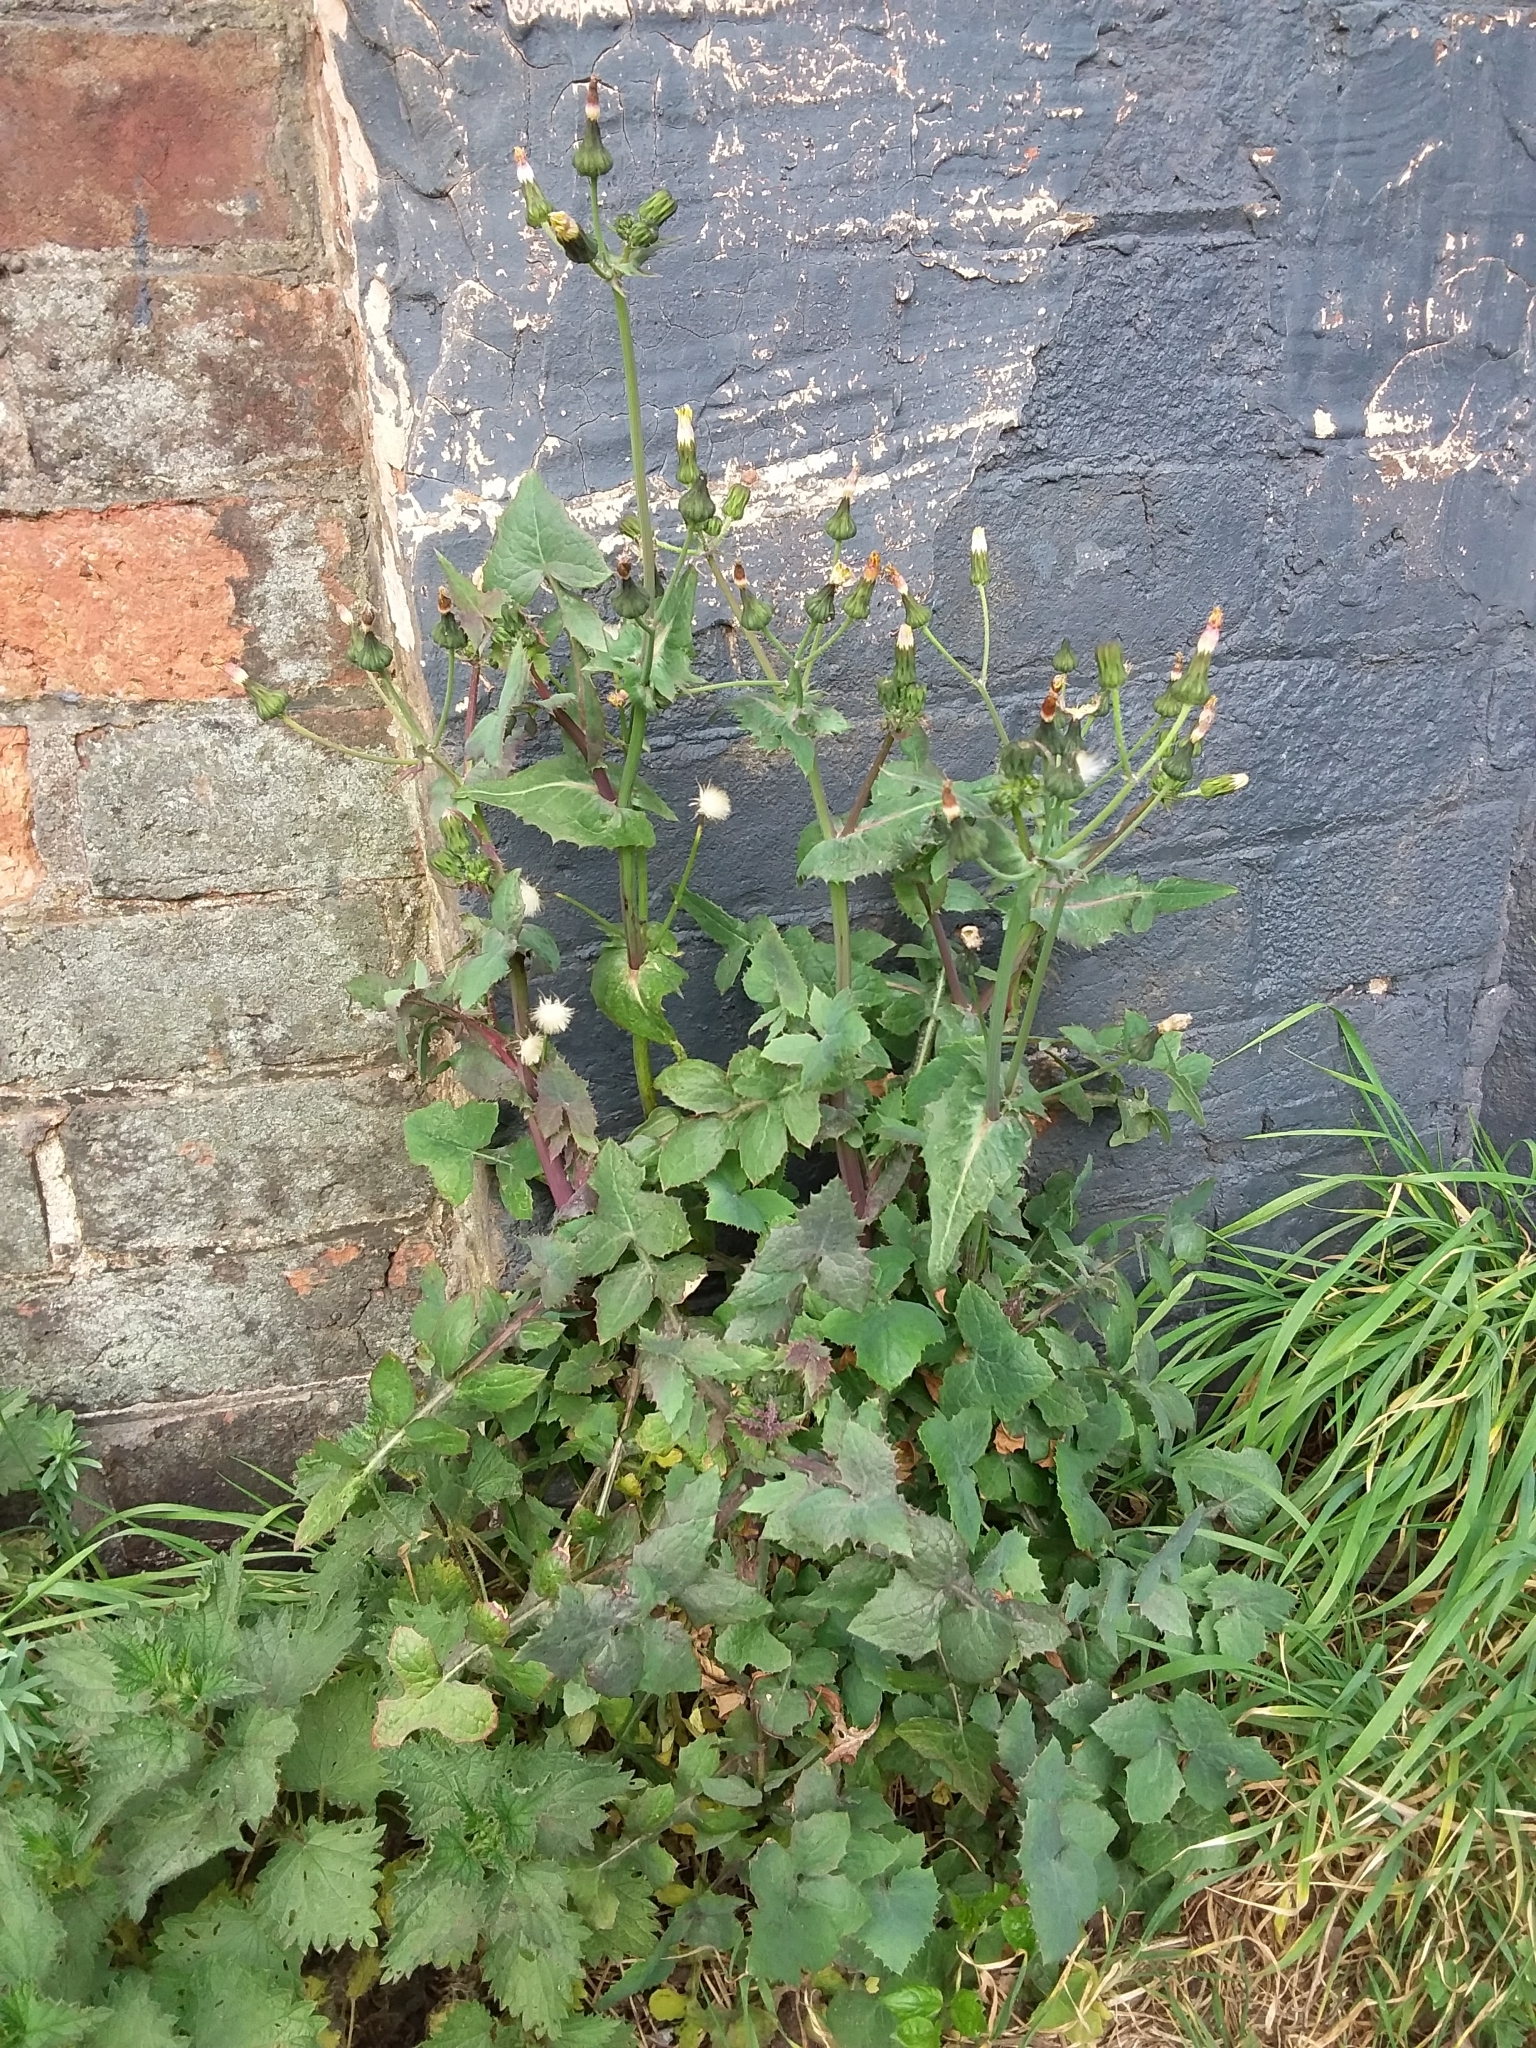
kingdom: Plantae
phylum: Tracheophyta
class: Magnoliopsida
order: Asterales
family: Asteraceae
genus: Sonchus
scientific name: Sonchus oleraceus
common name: Common sowthistle
